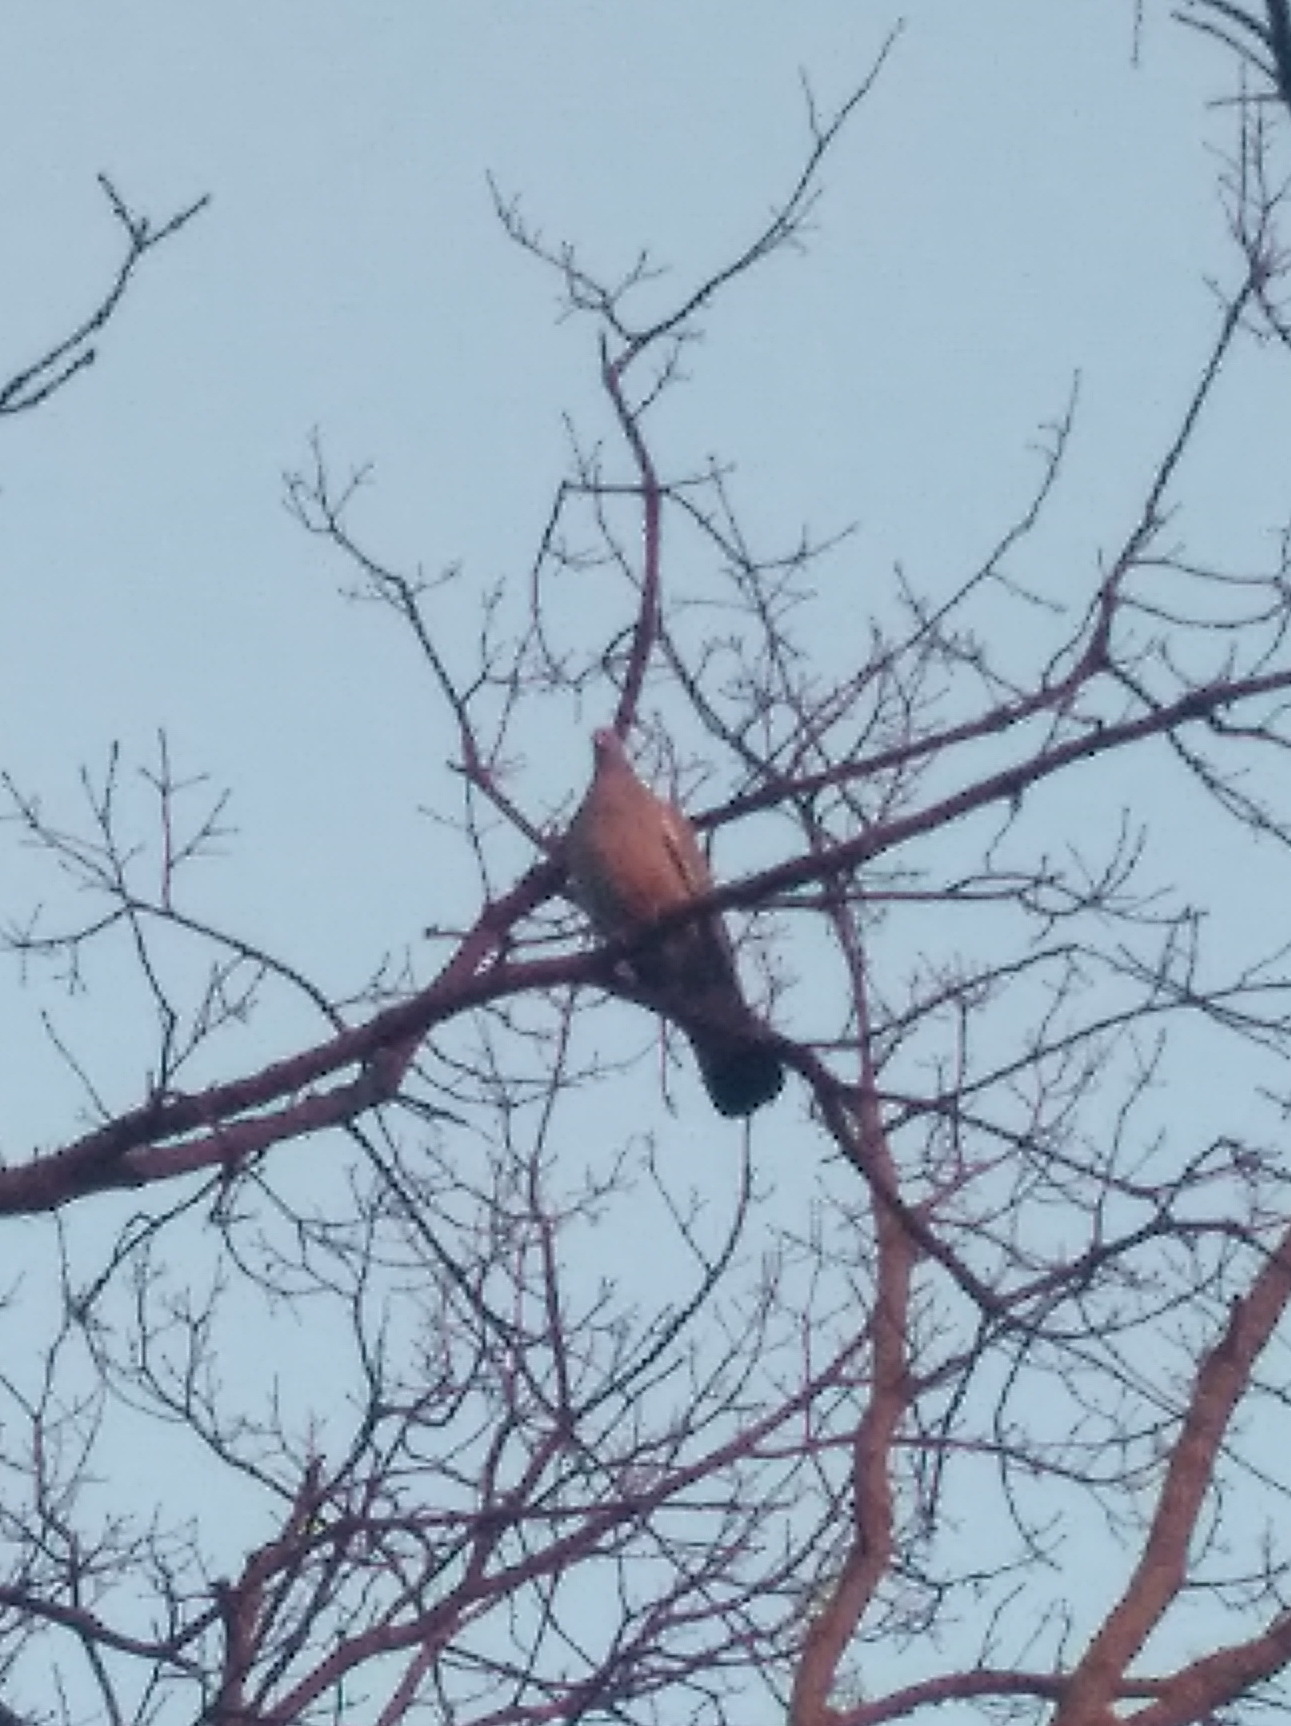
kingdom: Animalia
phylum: Chordata
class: Aves
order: Columbiformes
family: Columbidae
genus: Columba
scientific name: Columba palumbus
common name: Common wood pigeon
